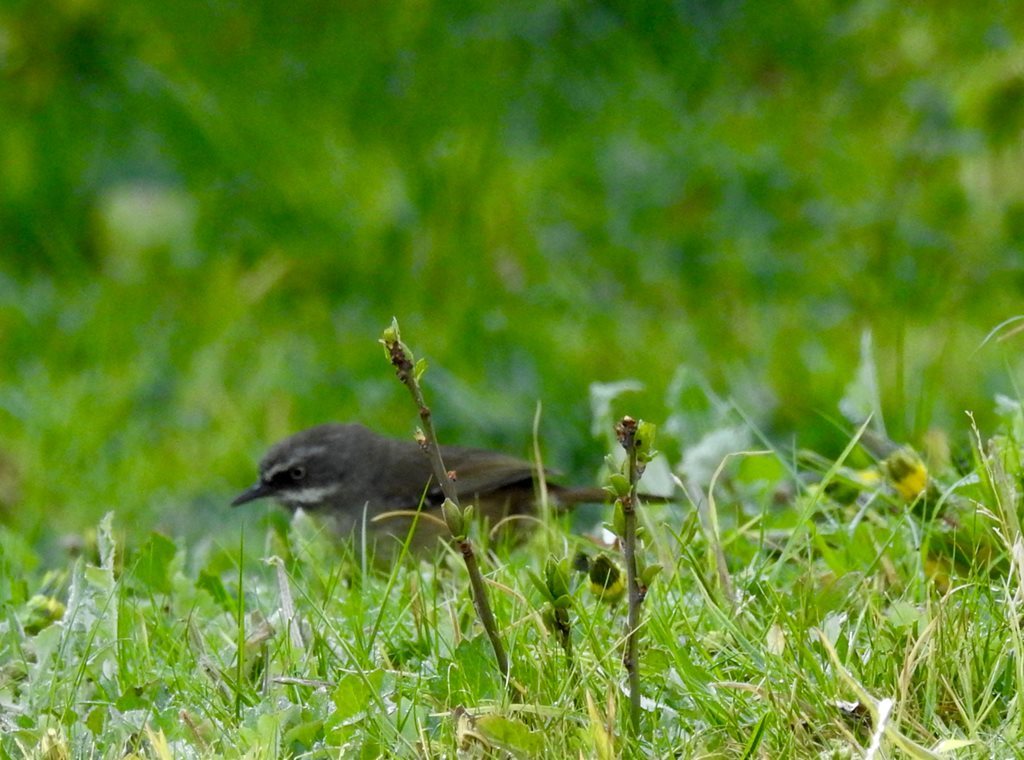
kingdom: Animalia
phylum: Chordata
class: Aves
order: Passeriformes
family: Acanthizidae
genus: Sericornis
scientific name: Sericornis frontalis
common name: White-browed scrubwren
